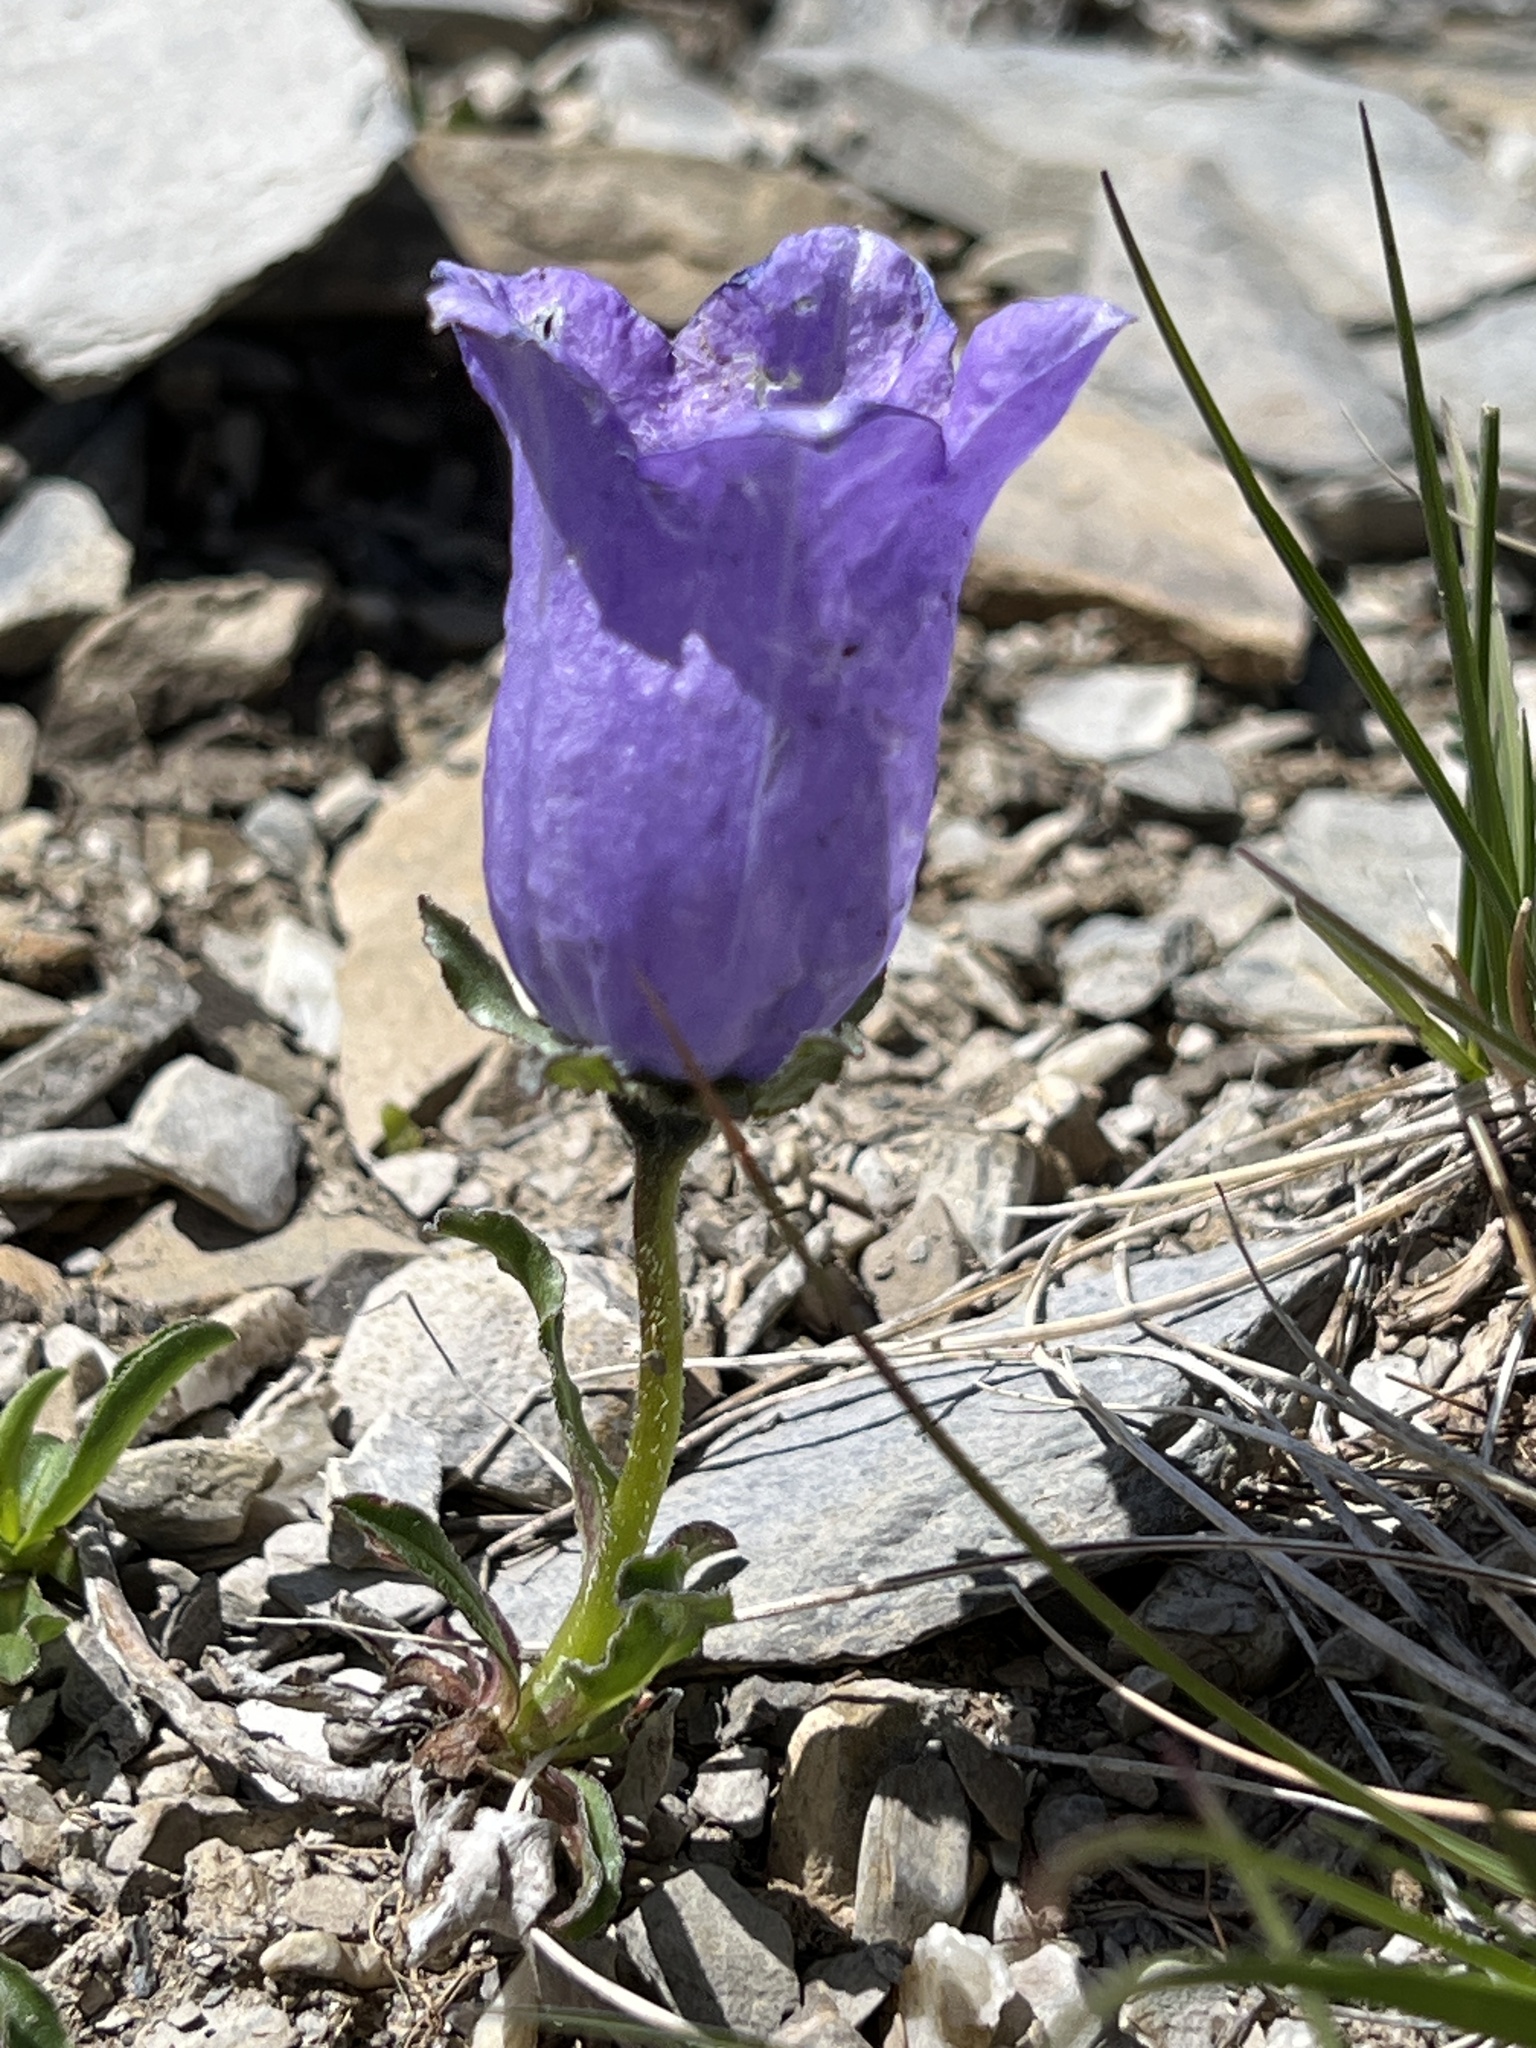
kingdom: Plantae
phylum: Tracheophyta
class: Magnoliopsida
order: Asterales
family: Campanulaceae
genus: Campanula
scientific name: Campanula alpestris
